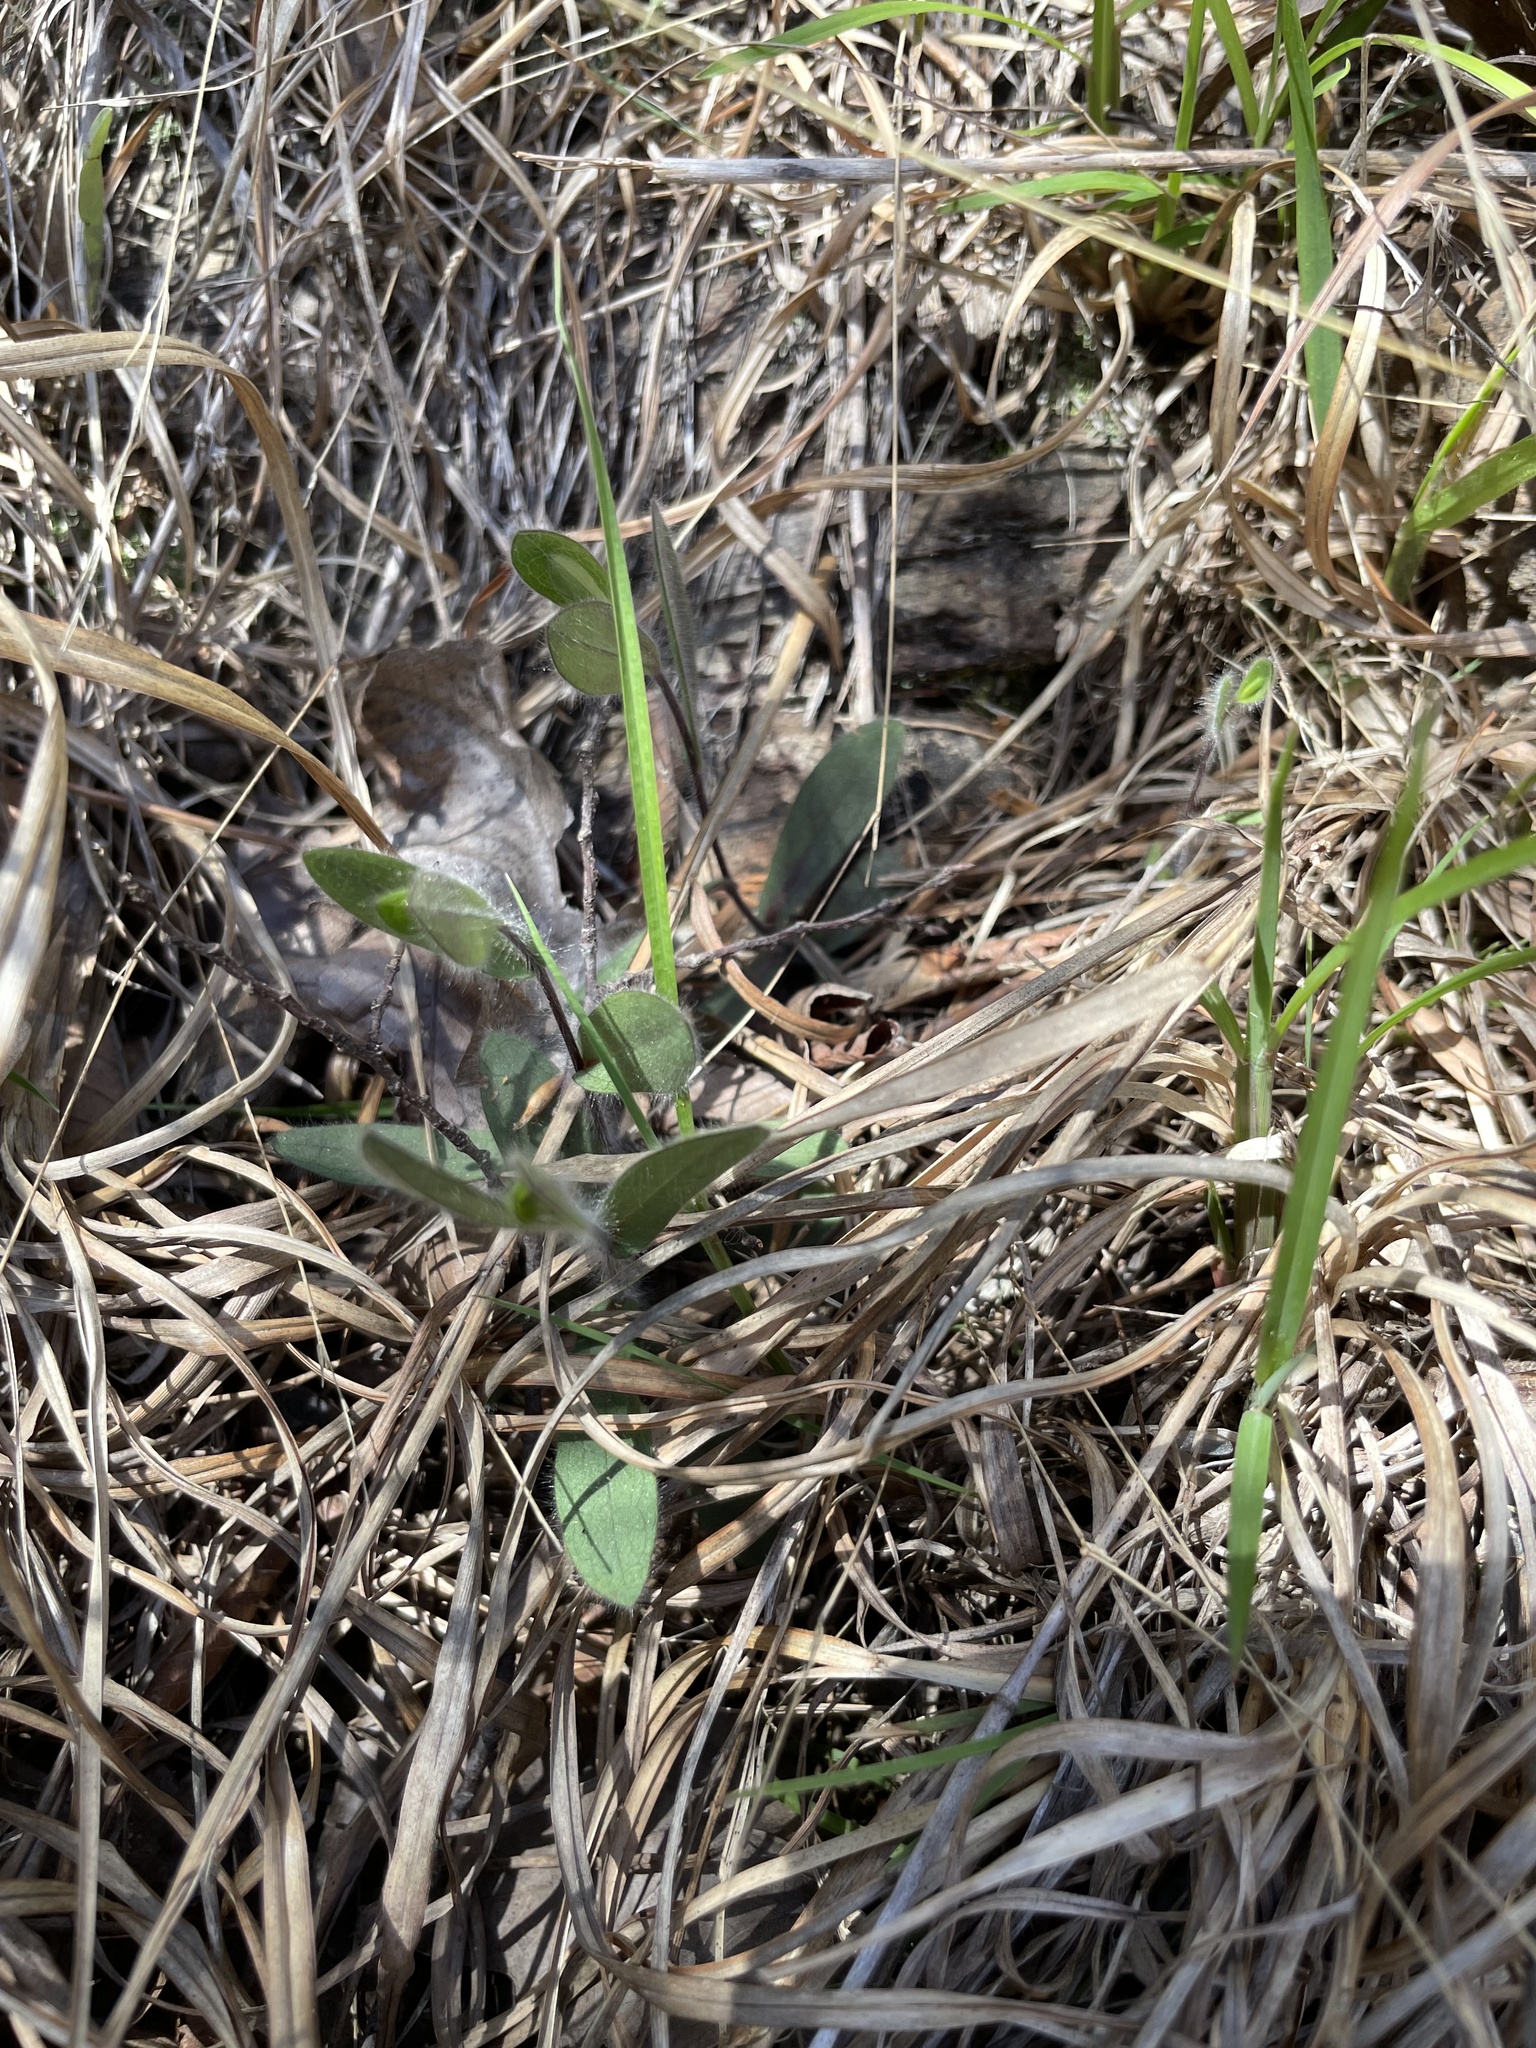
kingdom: Plantae
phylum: Tracheophyta
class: Magnoliopsida
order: Asterales
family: Asteraceae
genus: Symphyotrichum
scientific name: Symphyotrichum concolor
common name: Eastern silver aster
